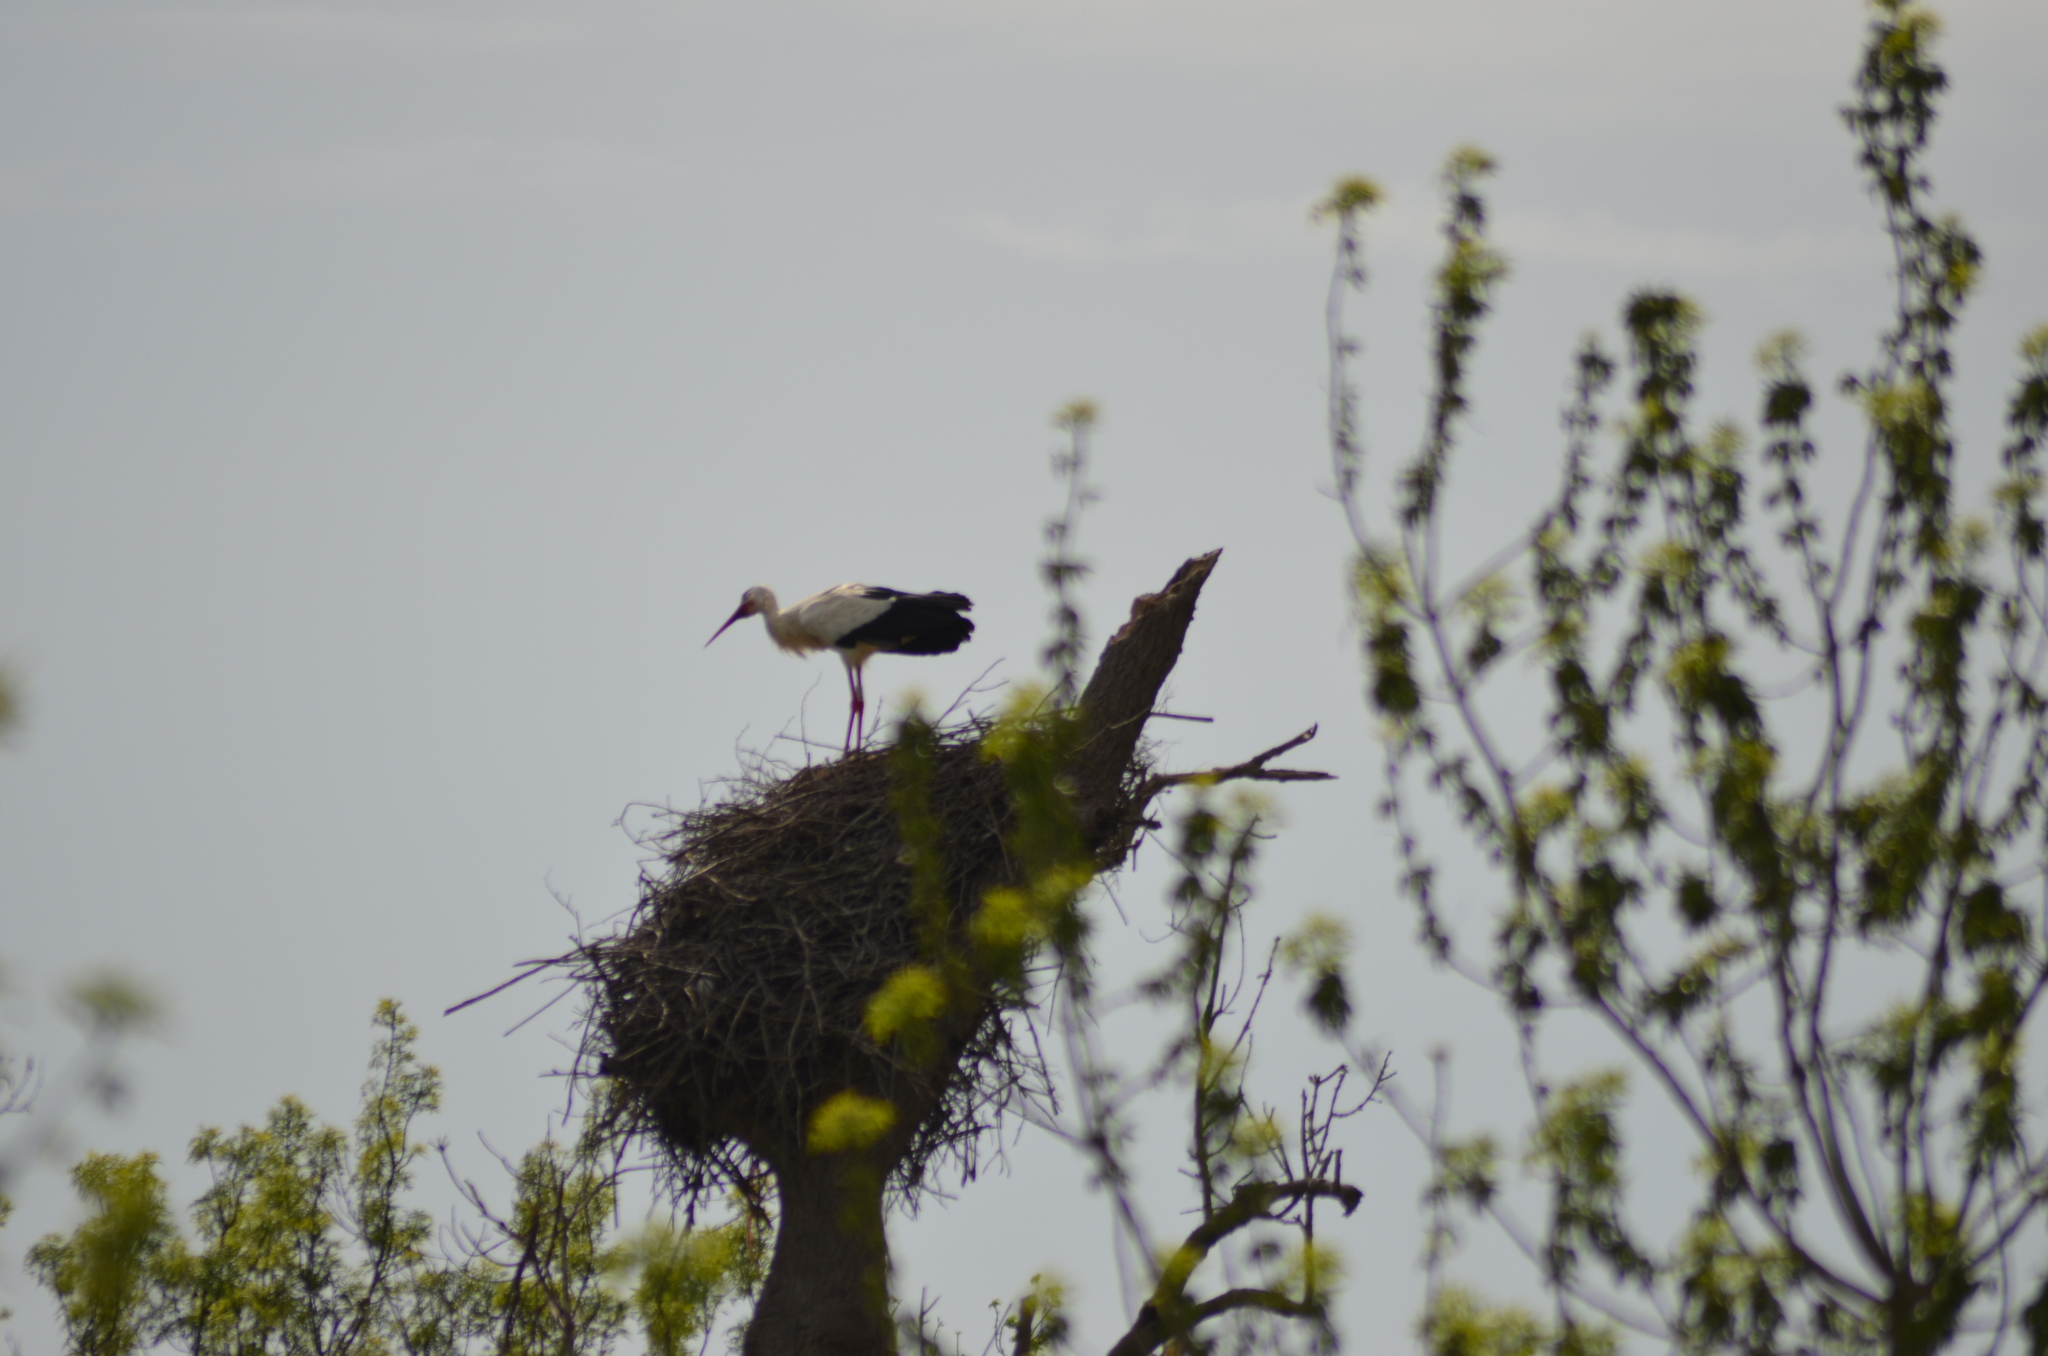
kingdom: Animalia
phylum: Chordata
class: Aves
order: Ciconiiformes
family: Ciconiidae
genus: Ciconia
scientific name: Ciconia ciconia
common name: White stork
